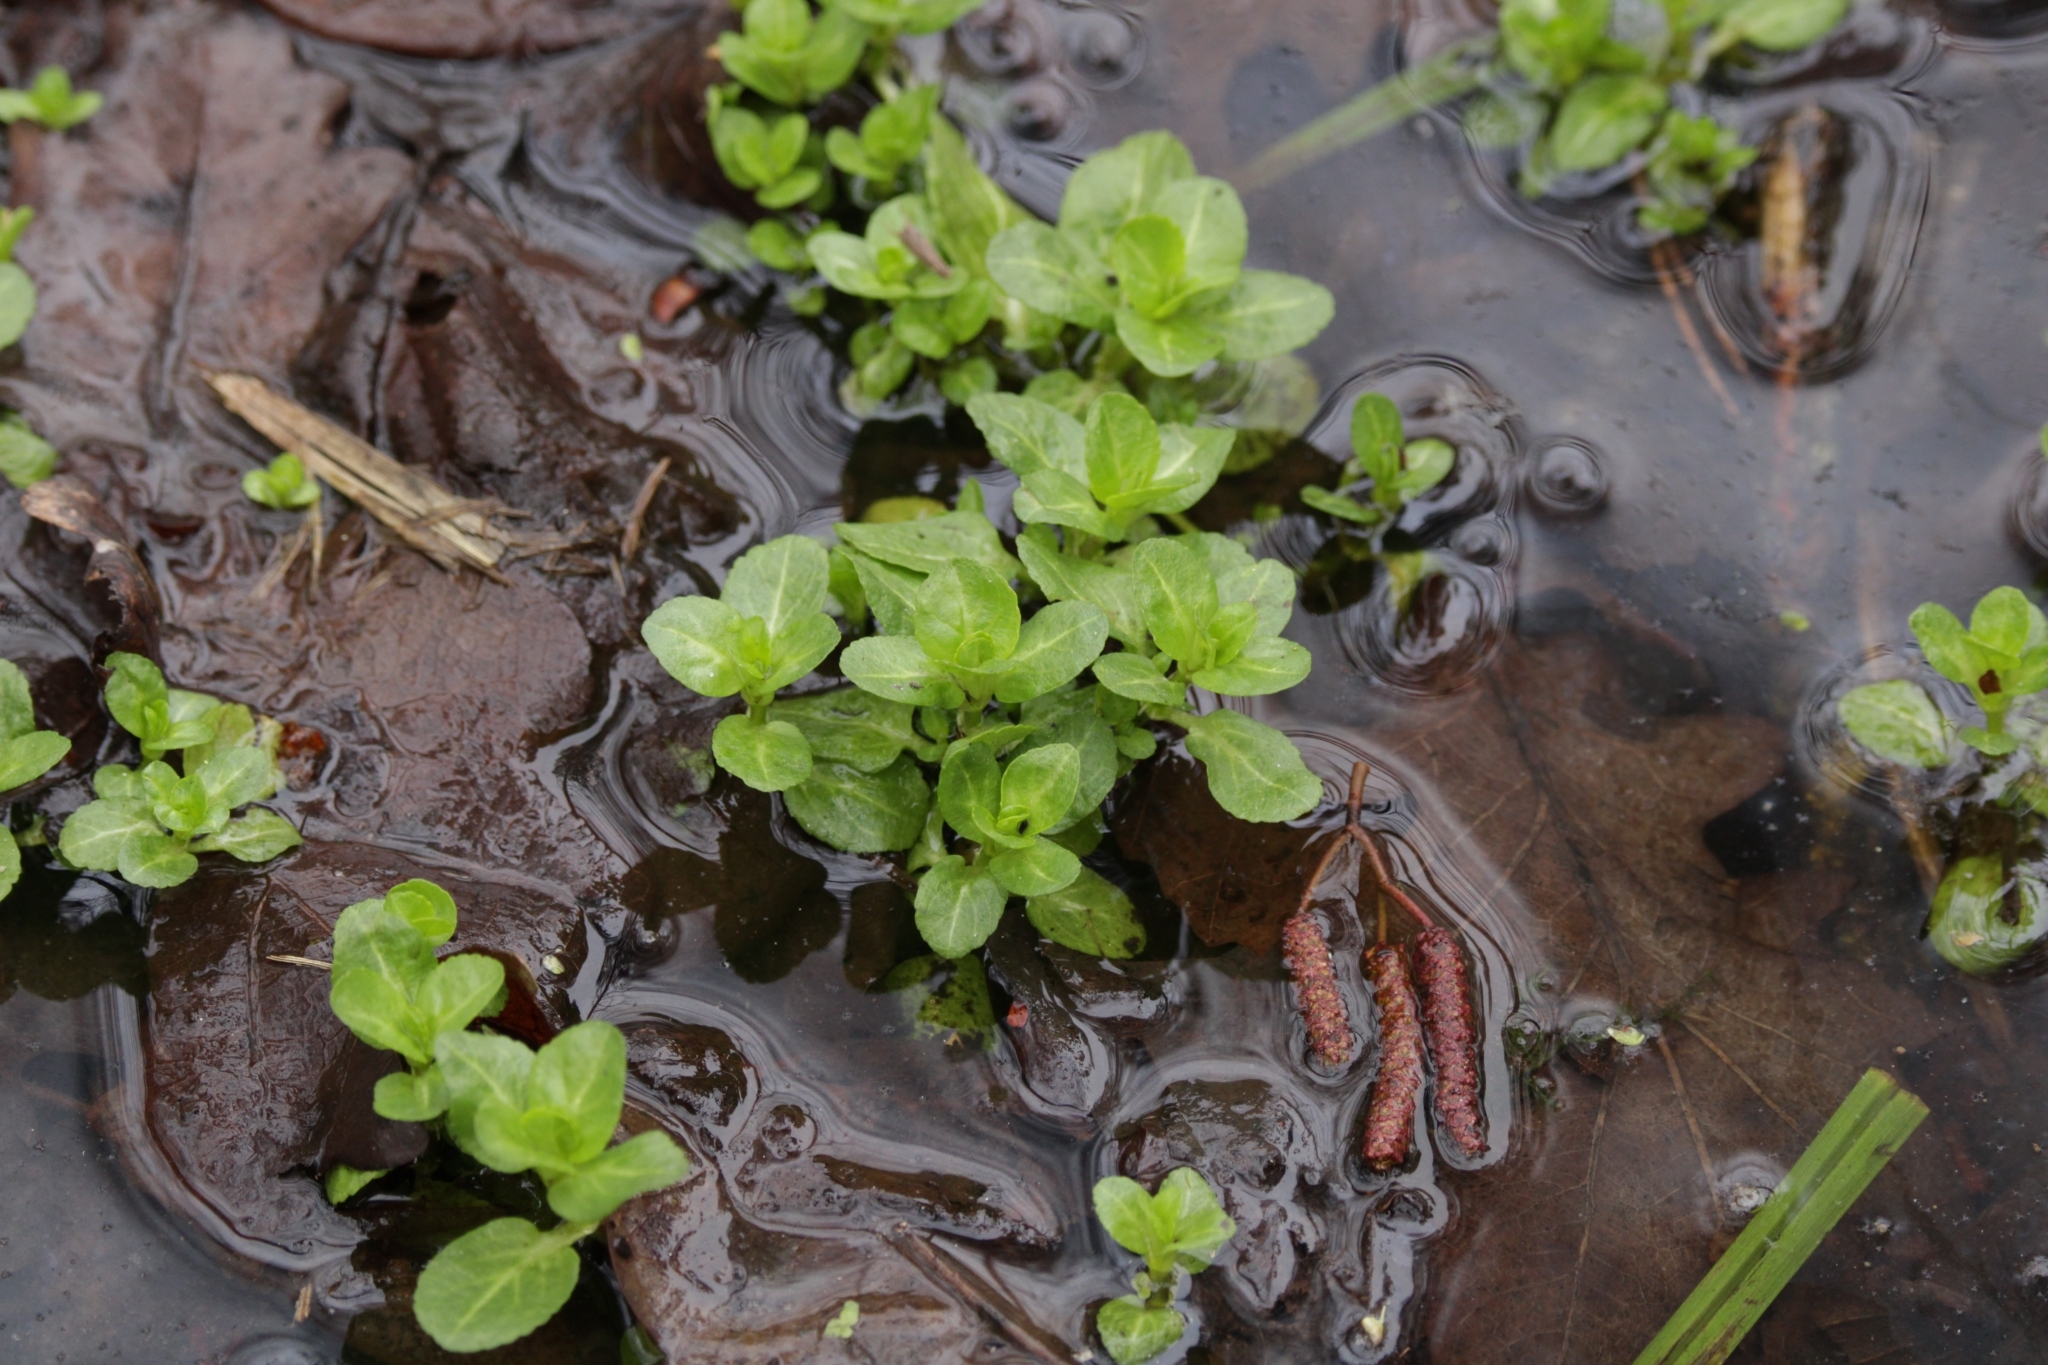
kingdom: Plantae
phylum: Tracheophyta
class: Magnoliopsida
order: Lamiales
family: Plantaginaceae
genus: Veronica
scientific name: Veronica beccabunga
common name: Brooklime
